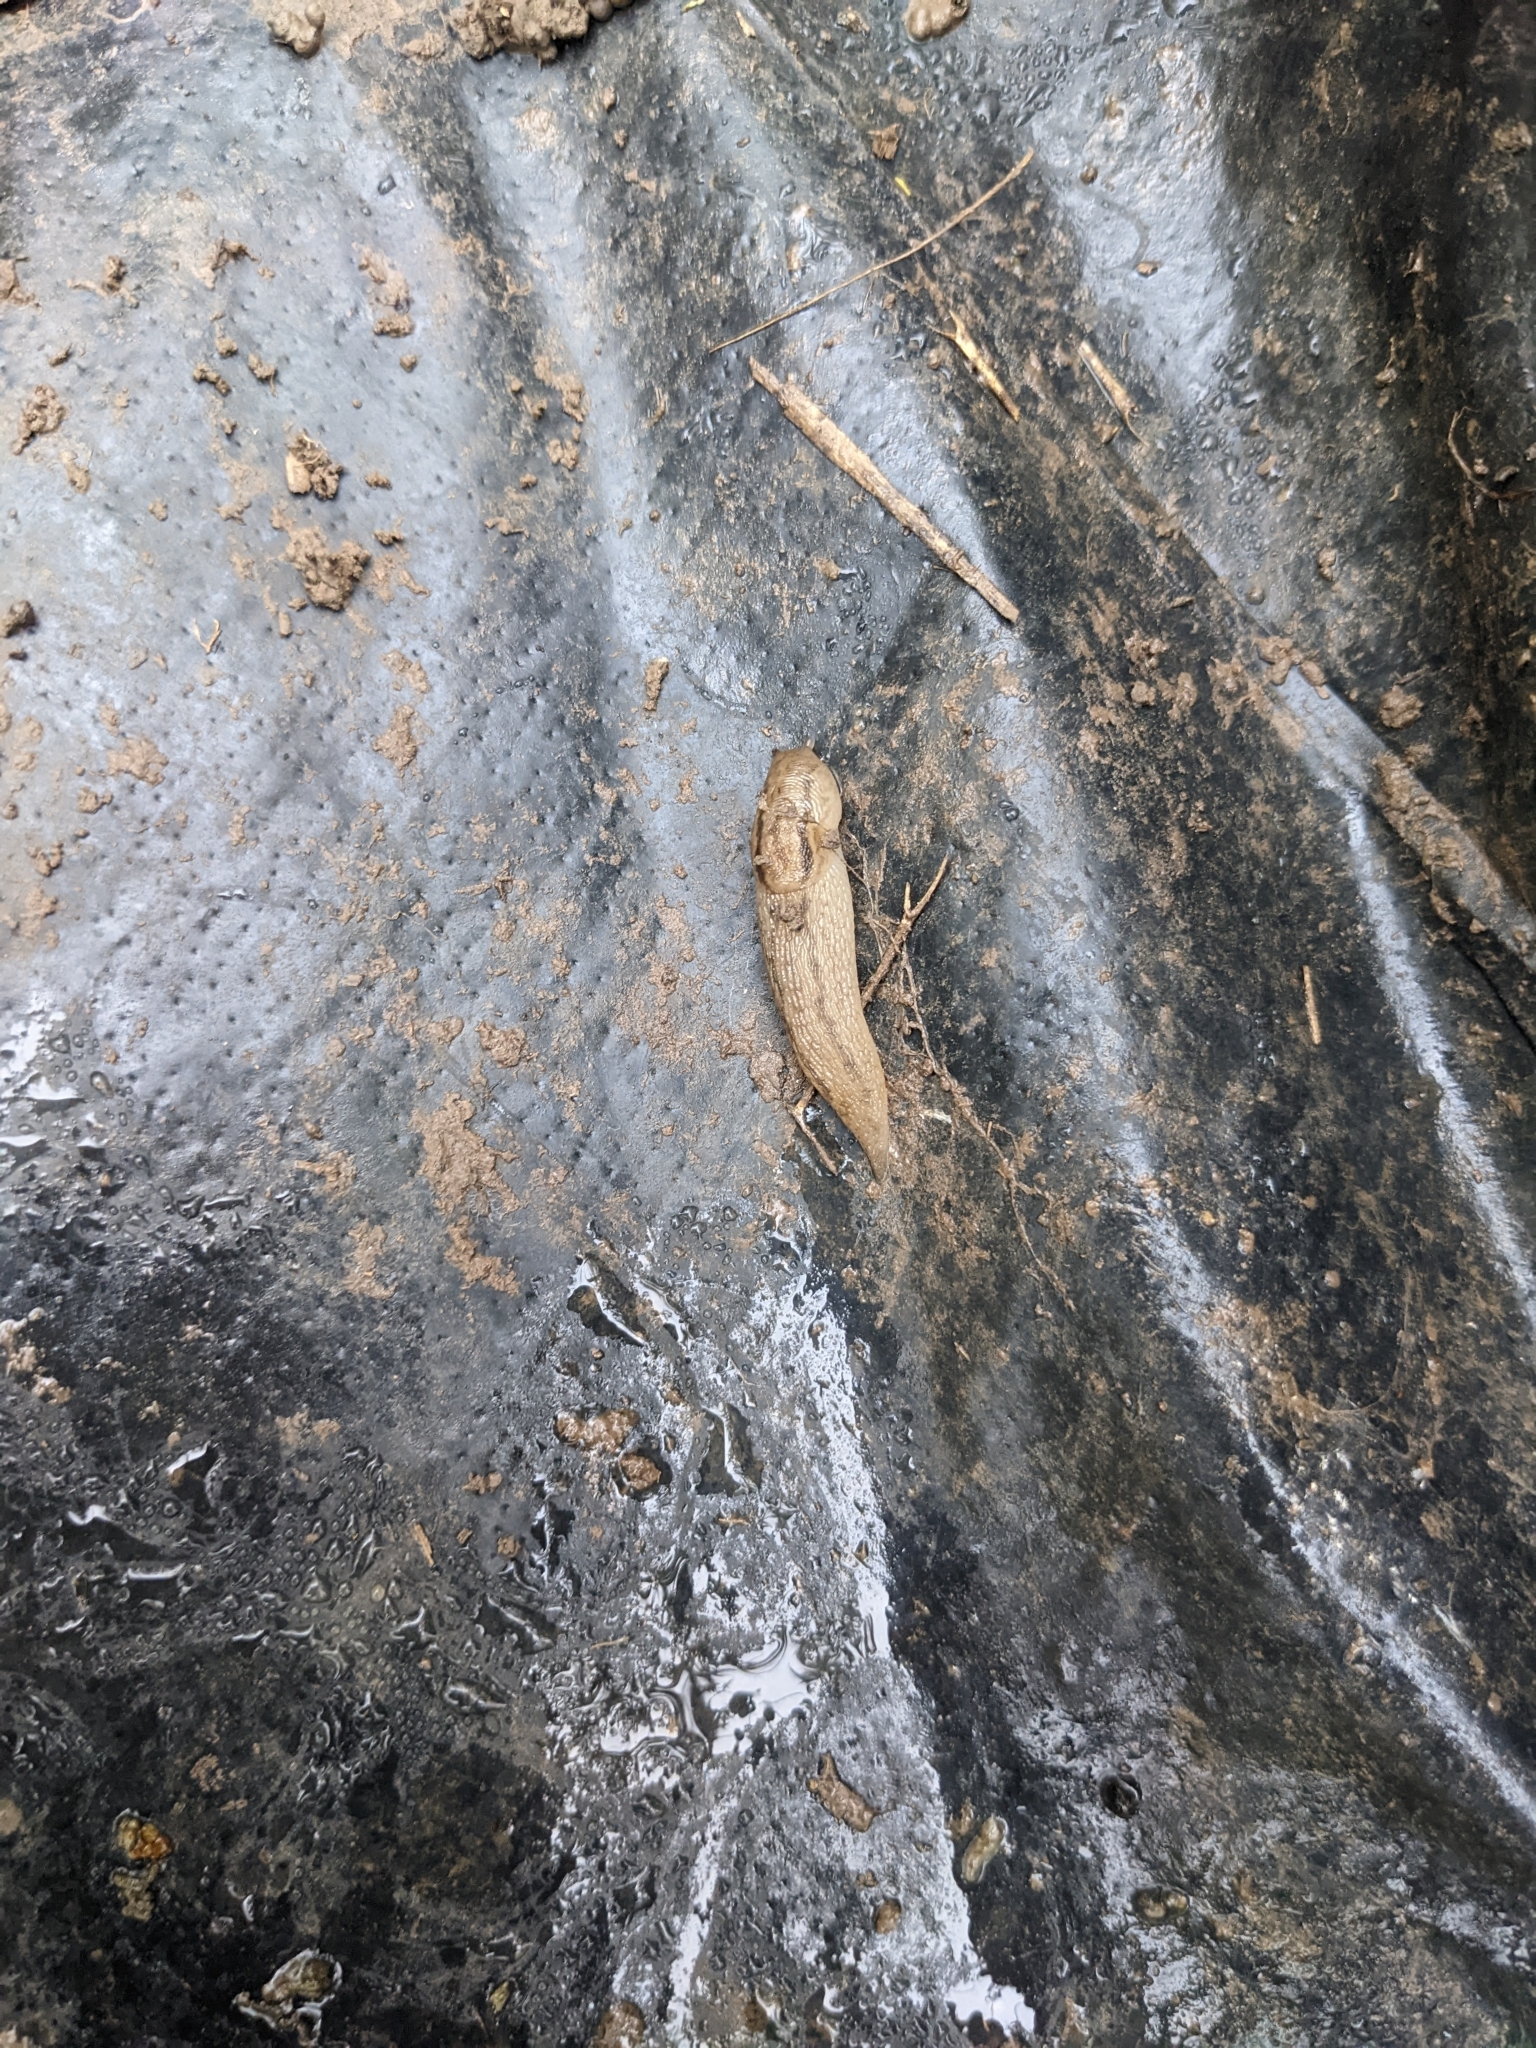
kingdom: Animalia
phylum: Mollusca
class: Gastropoda
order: Stylommatophora
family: Limacidae
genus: Ambigolimax
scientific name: Ambigolimax
